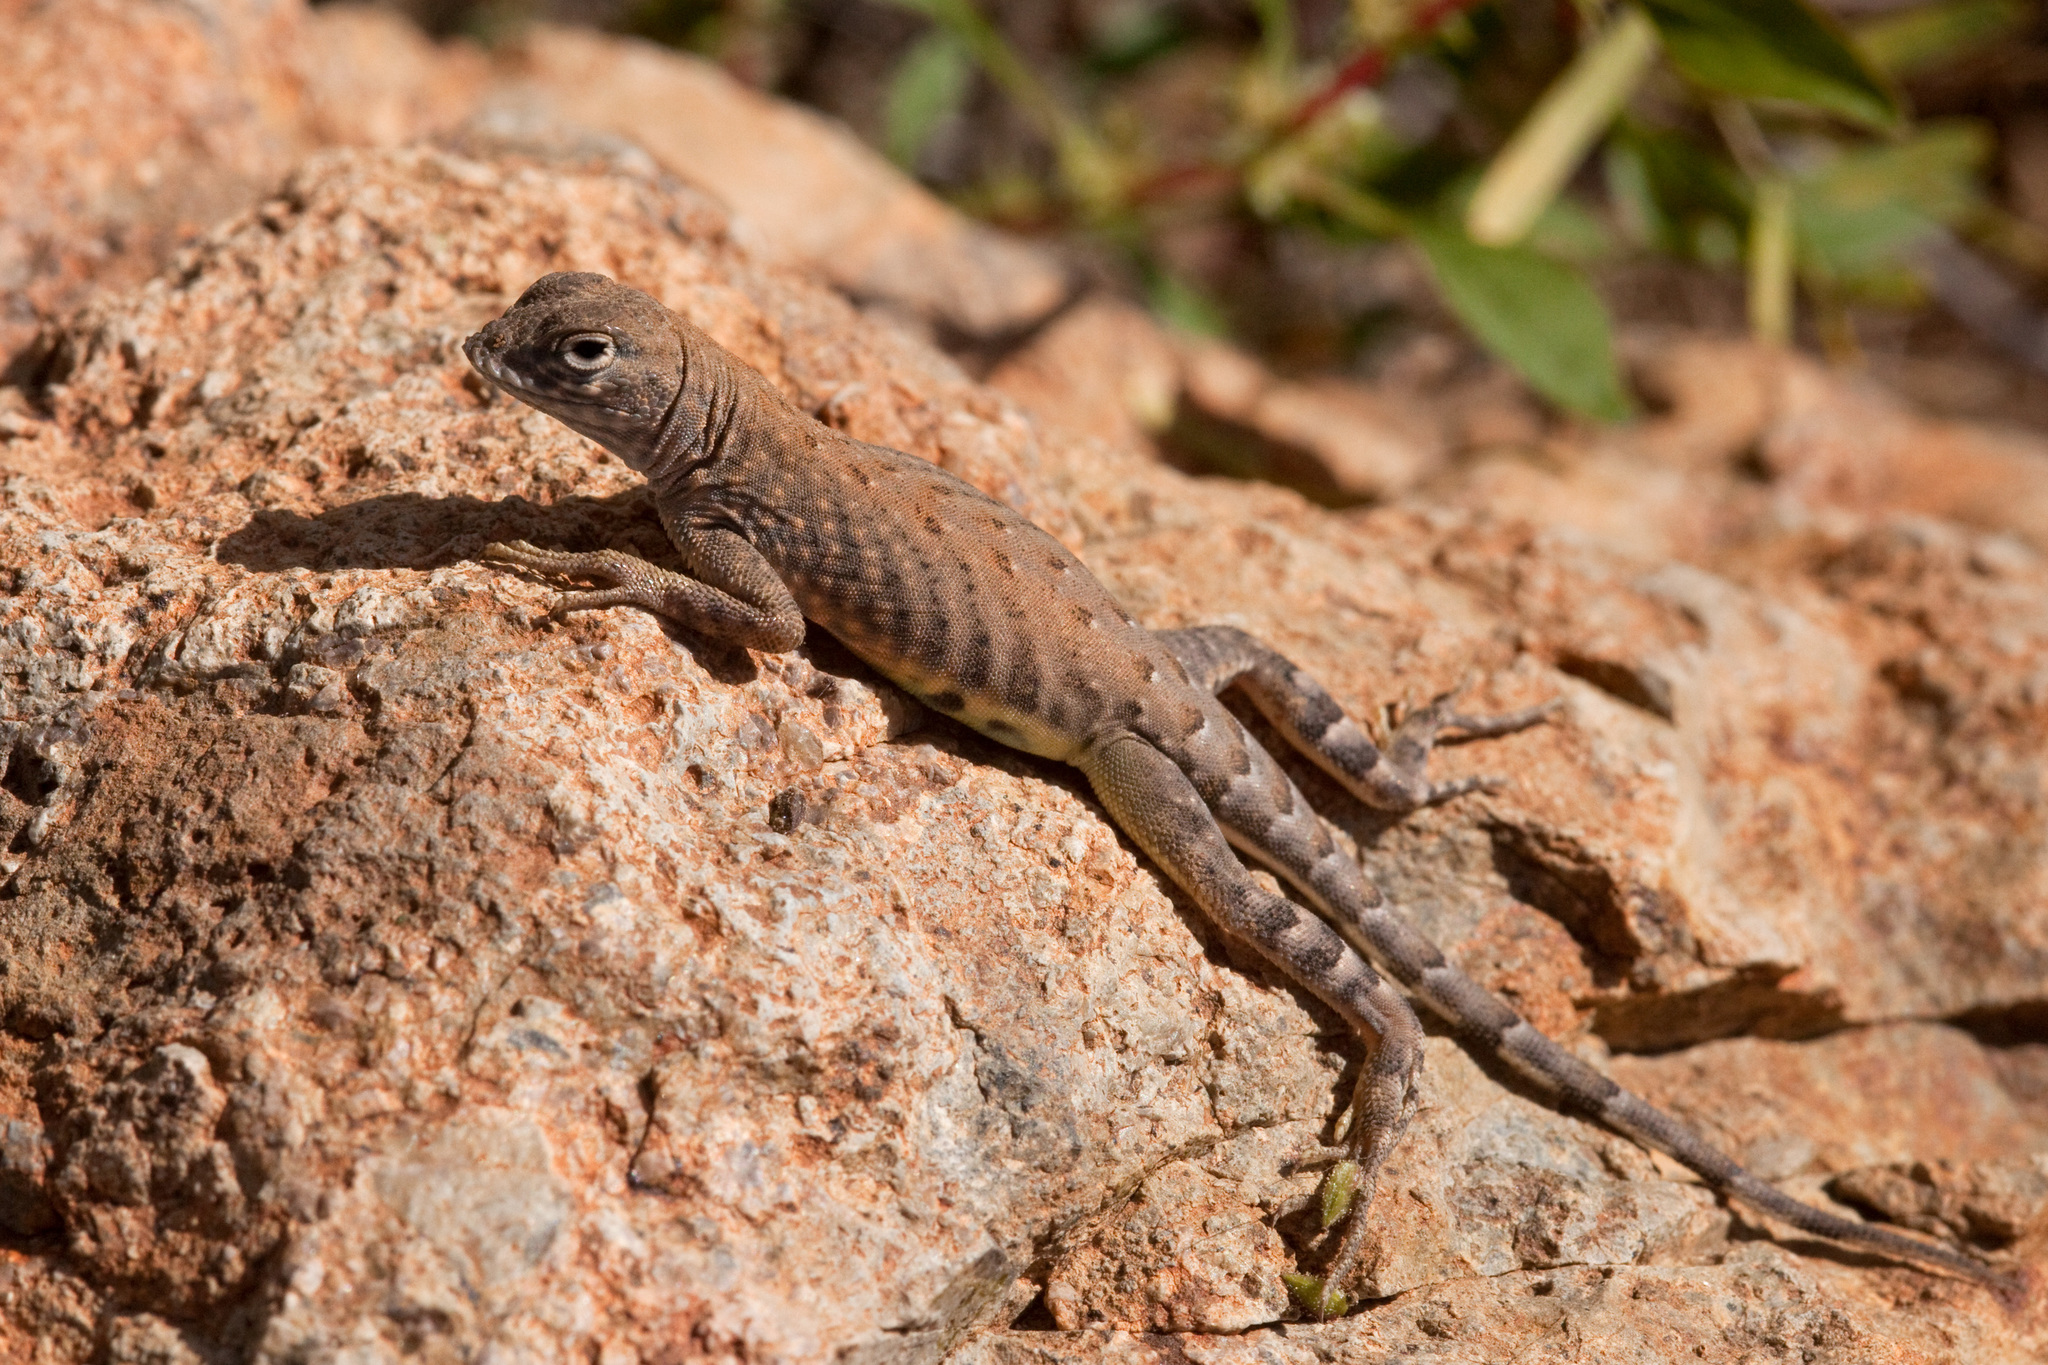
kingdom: Animalia
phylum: Chordata
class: Squamata
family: Phrynosomatidae
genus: Cophosaurus
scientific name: Cophosaurus texanus
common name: Greater earless lizard
